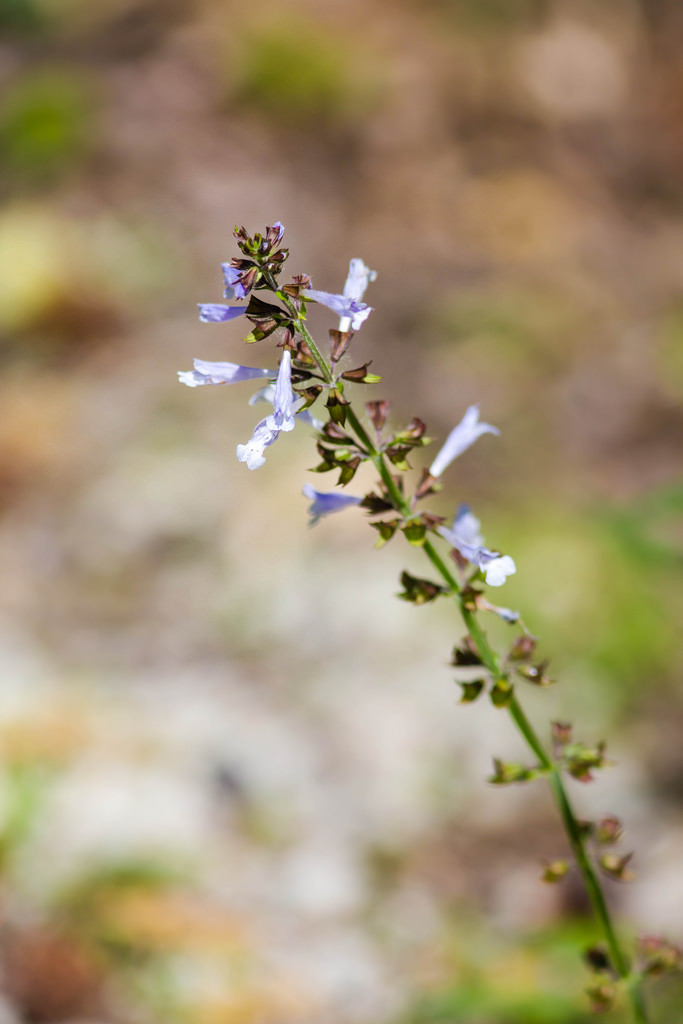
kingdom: Plantae
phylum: Tracheophyta
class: Magnoliopsida
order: Lamiales
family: Lamiaceae
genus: Salvia
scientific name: Salvia lyrata
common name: Cancerweed
